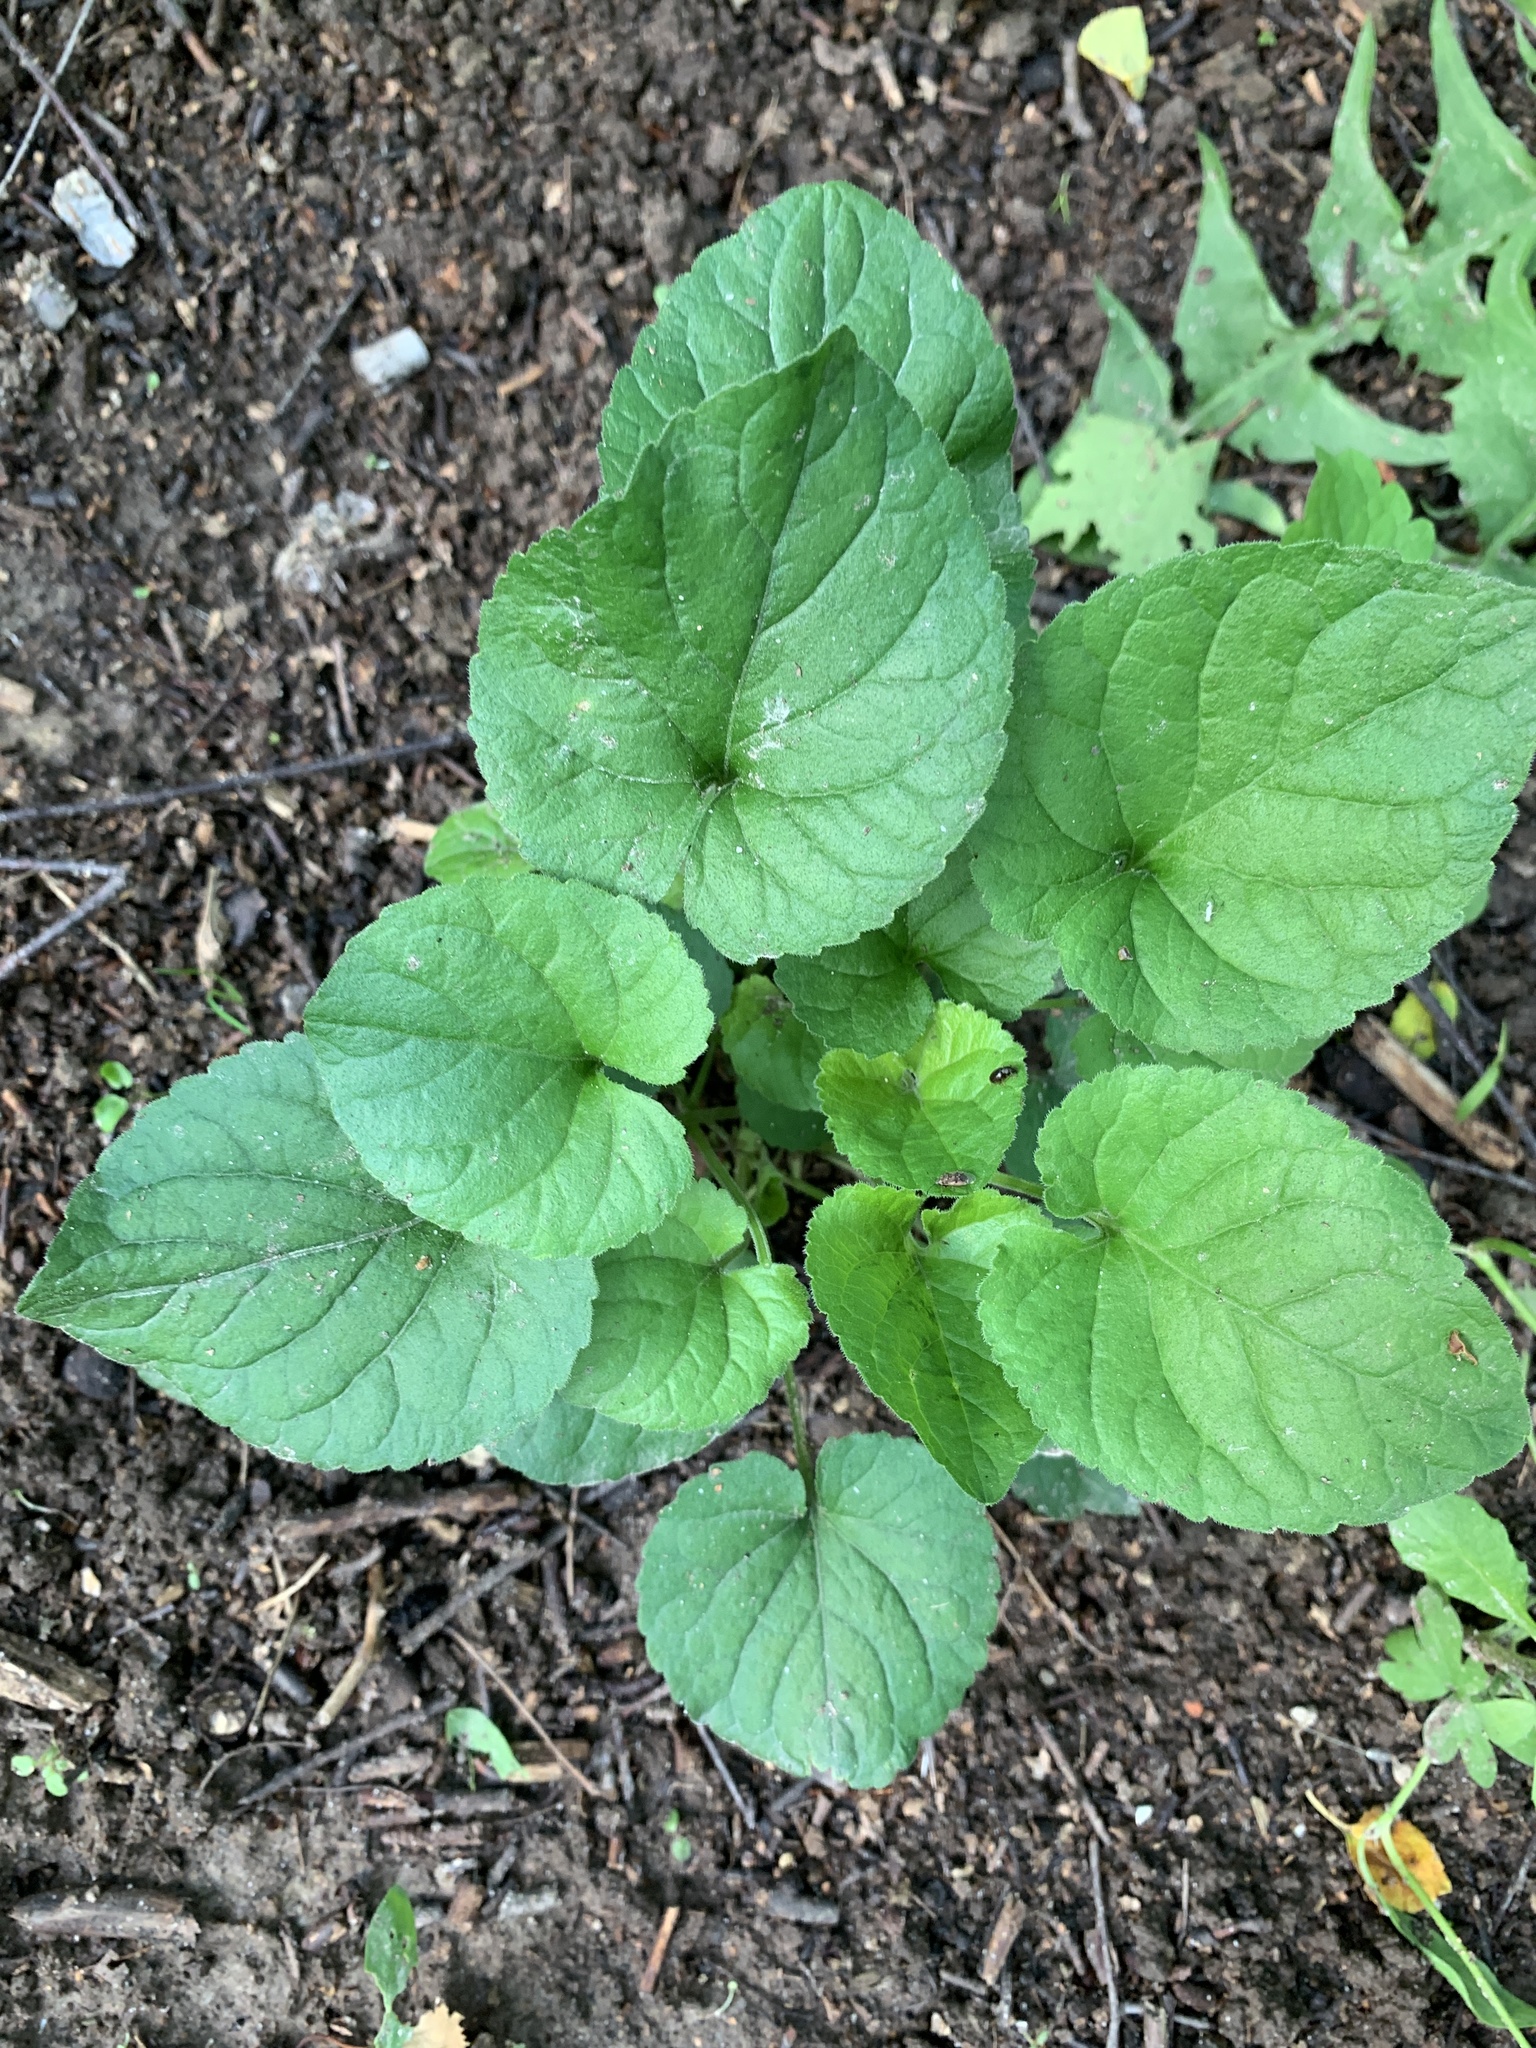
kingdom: Plantae
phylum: Tracheophyta
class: Magnoliopsida
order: Malpighiales
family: Violaceae
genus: Viola
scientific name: Viola hirta
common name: Hairy violet
